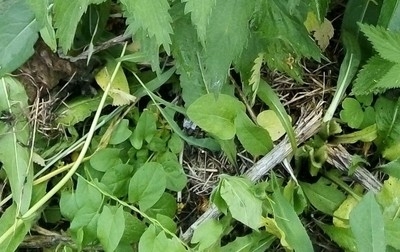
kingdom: Plantae
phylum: Tracheophyta
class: Magnoliopsida
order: Solanales
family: Convolvulaceae
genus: Convolvulus
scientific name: Convolvulus arvensis
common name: Field bindweed
